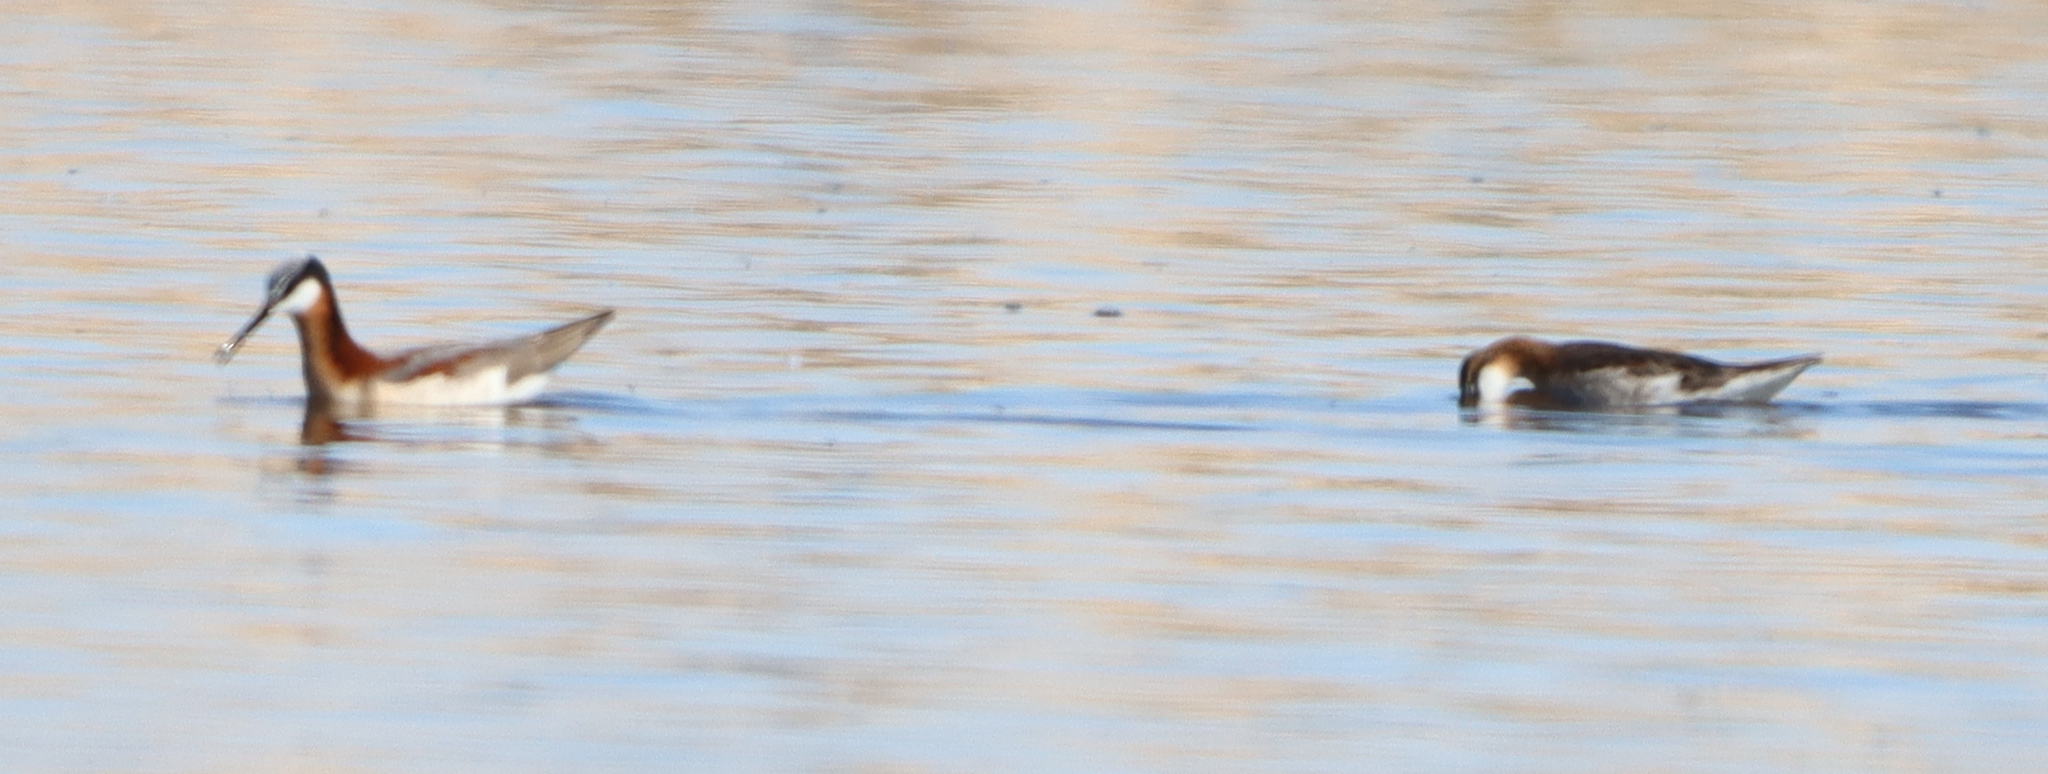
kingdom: Animalia
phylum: Chordata
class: Aves
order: Charadriiformes
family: Scolopacidae
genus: Phalaropus
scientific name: Phalaropus tricolor
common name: Wilson's phalarope
